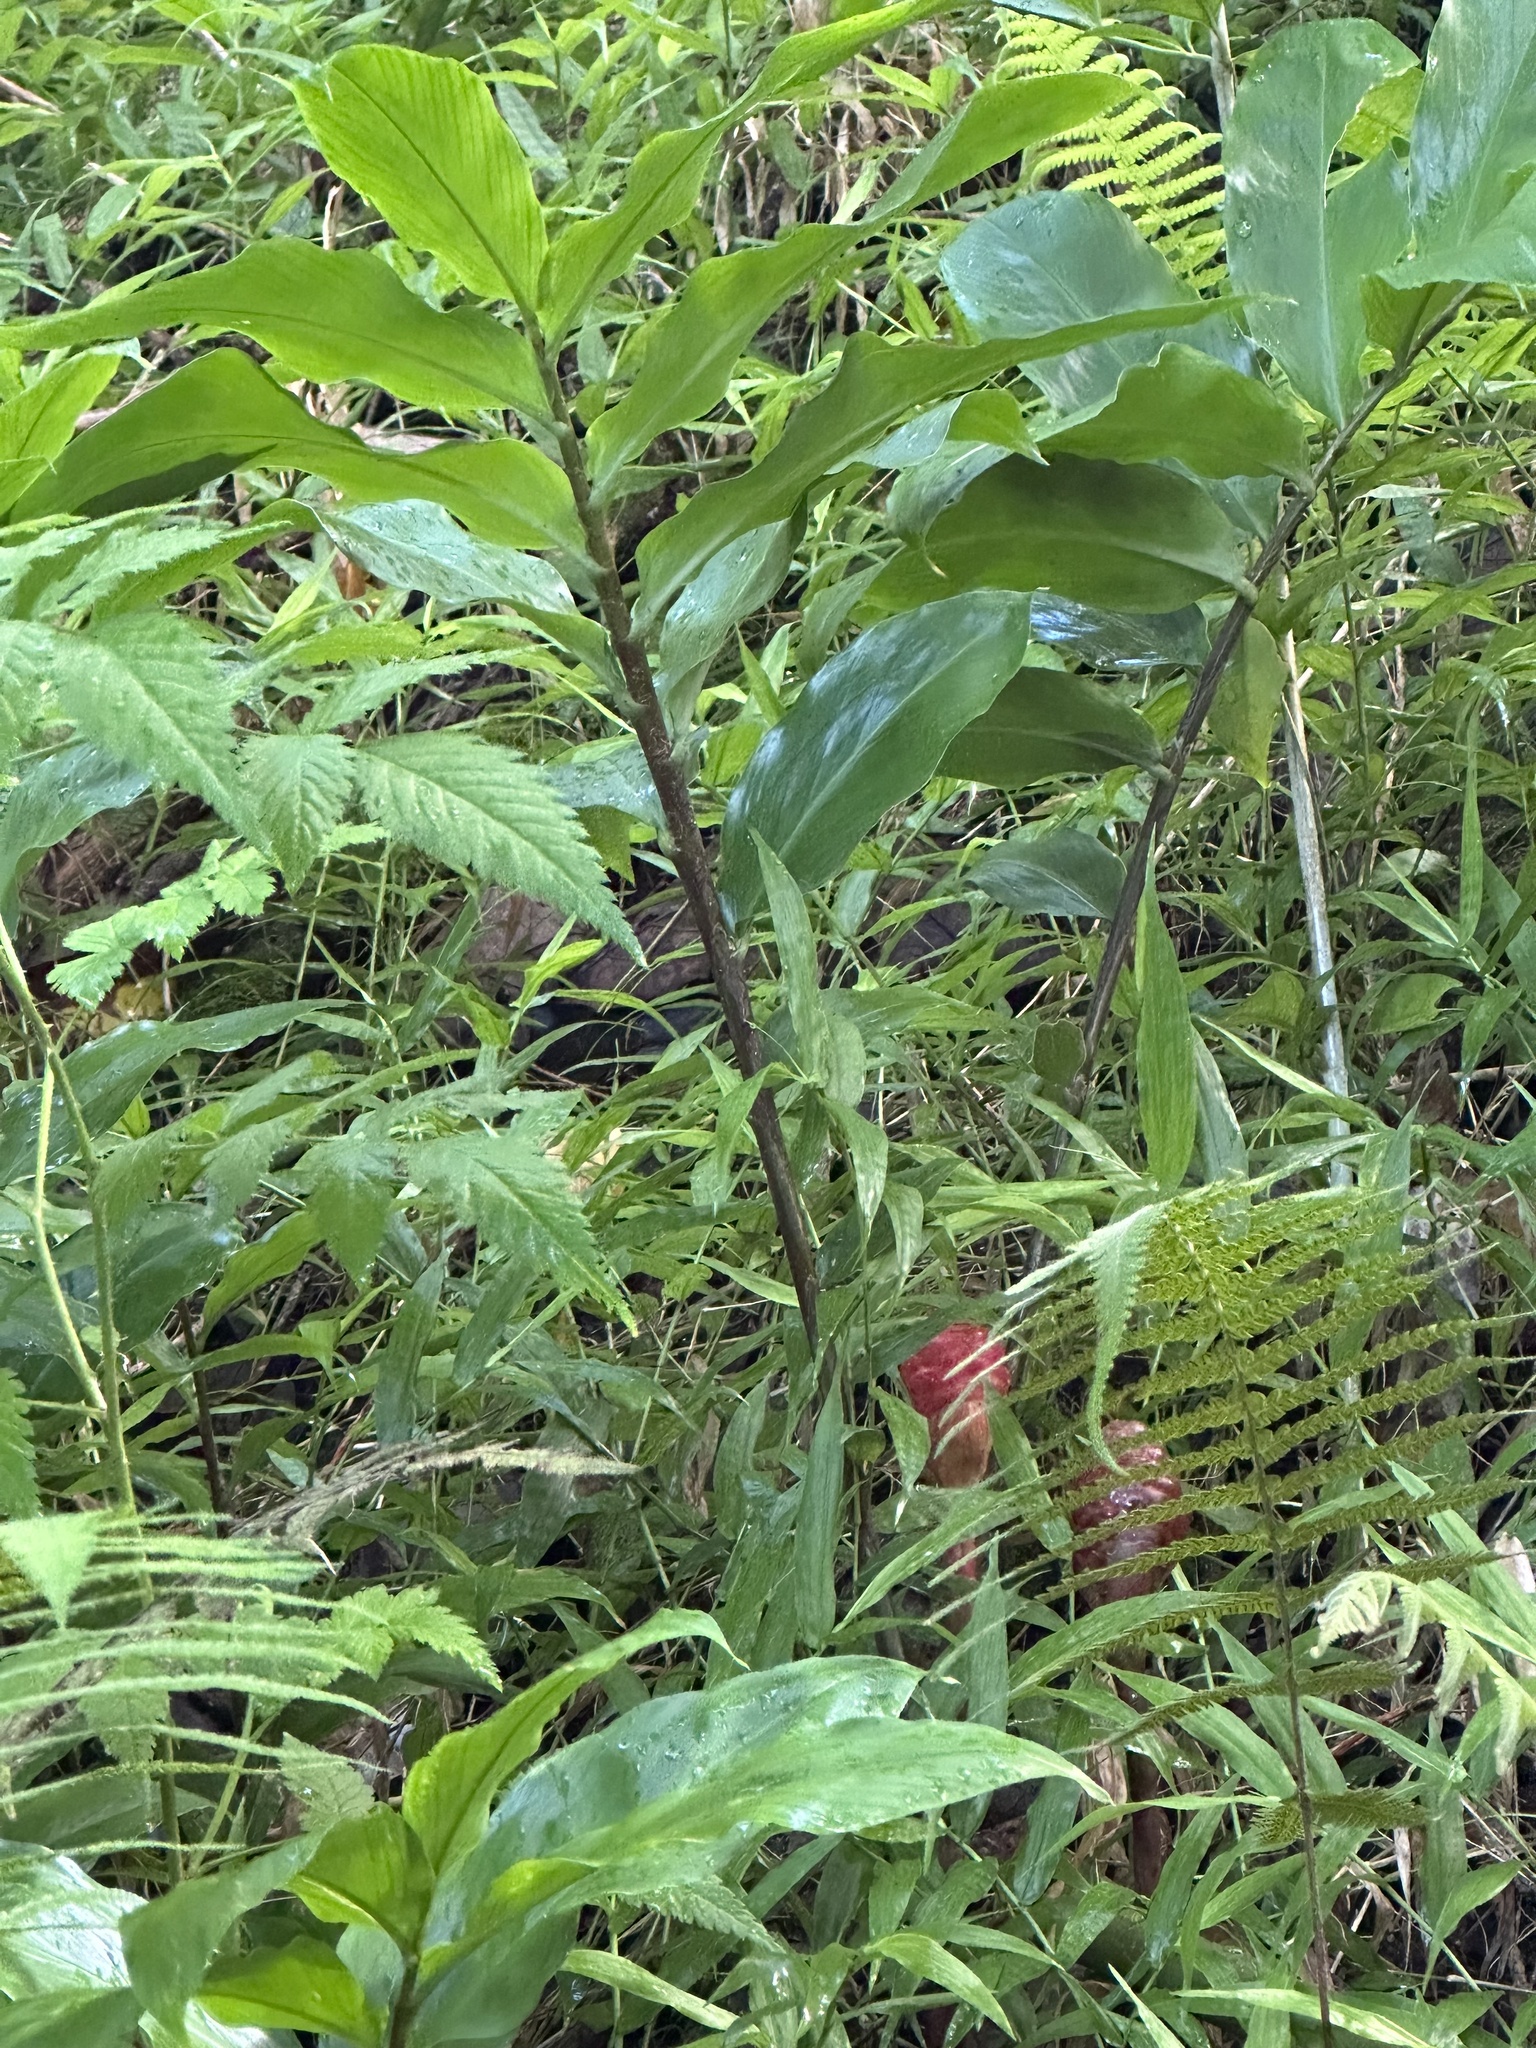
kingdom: Plantae
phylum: Tracheophyta
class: Liliopsida
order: Zingiberales
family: Zingiberaceae
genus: Zingiber
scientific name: Zingiber zerumbet
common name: Bitter ginger
